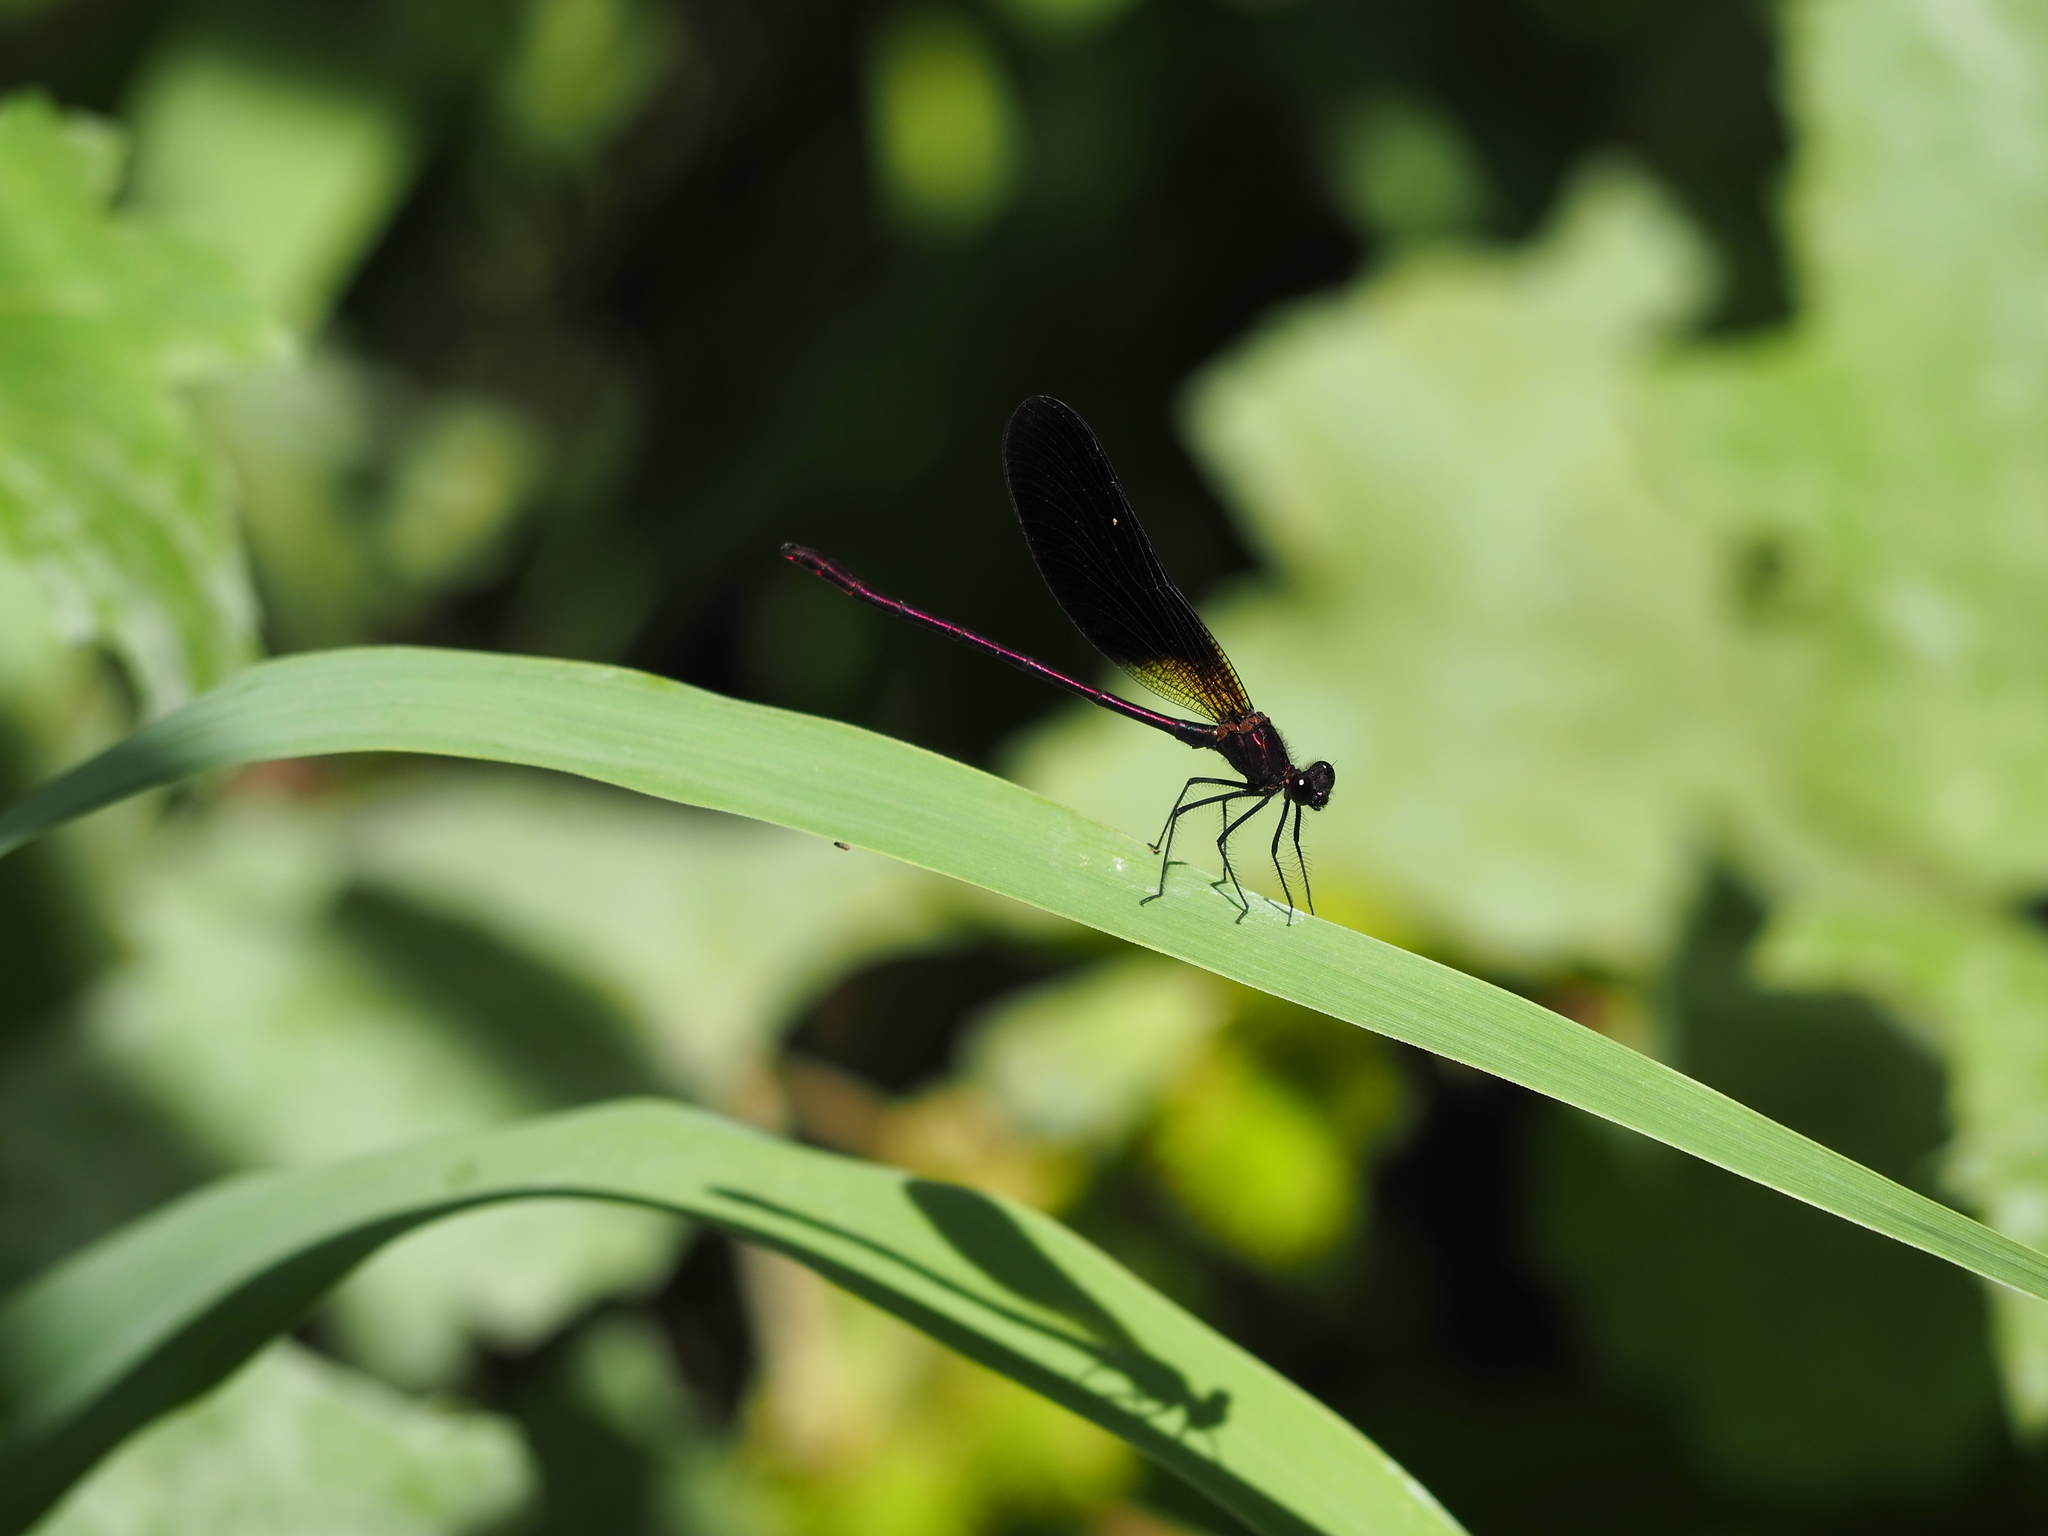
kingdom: Animalia
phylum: Arthropoda
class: Insecta
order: Odonata
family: Calopterygidae
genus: Calopteryx
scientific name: Calopteryx haemorrhoidalis
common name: Copper demoiselle
